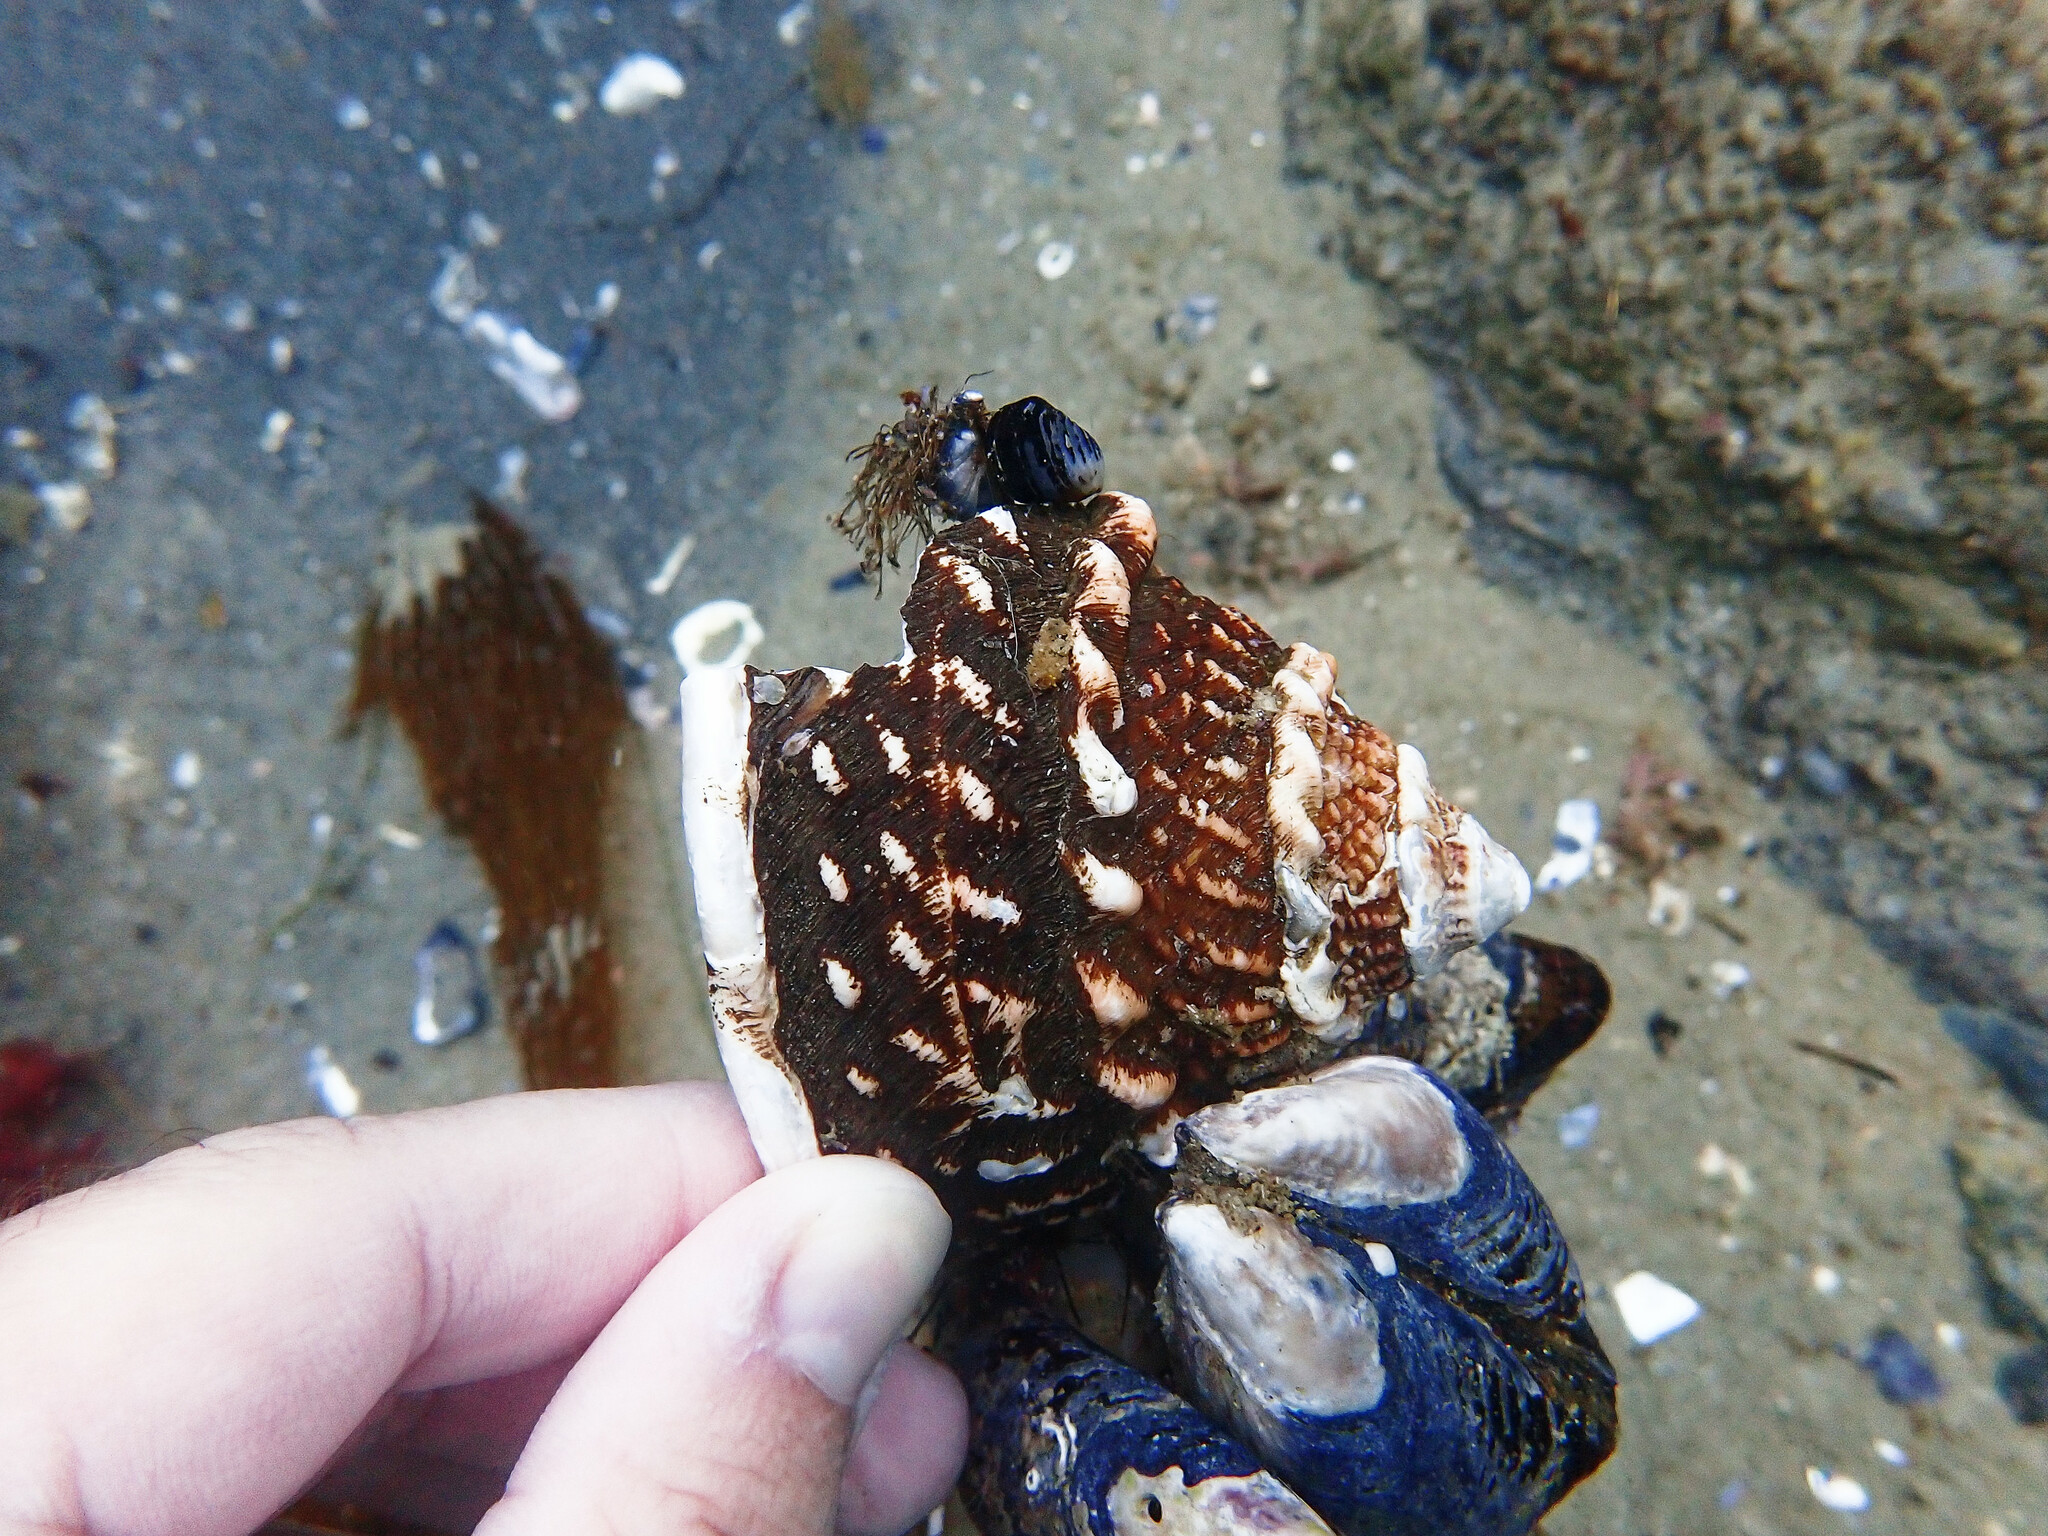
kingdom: Animalia
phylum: Mollusca
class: Gastropoda
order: Trochida
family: Turbinidae
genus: Megastraea
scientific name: Megastraea undosa
